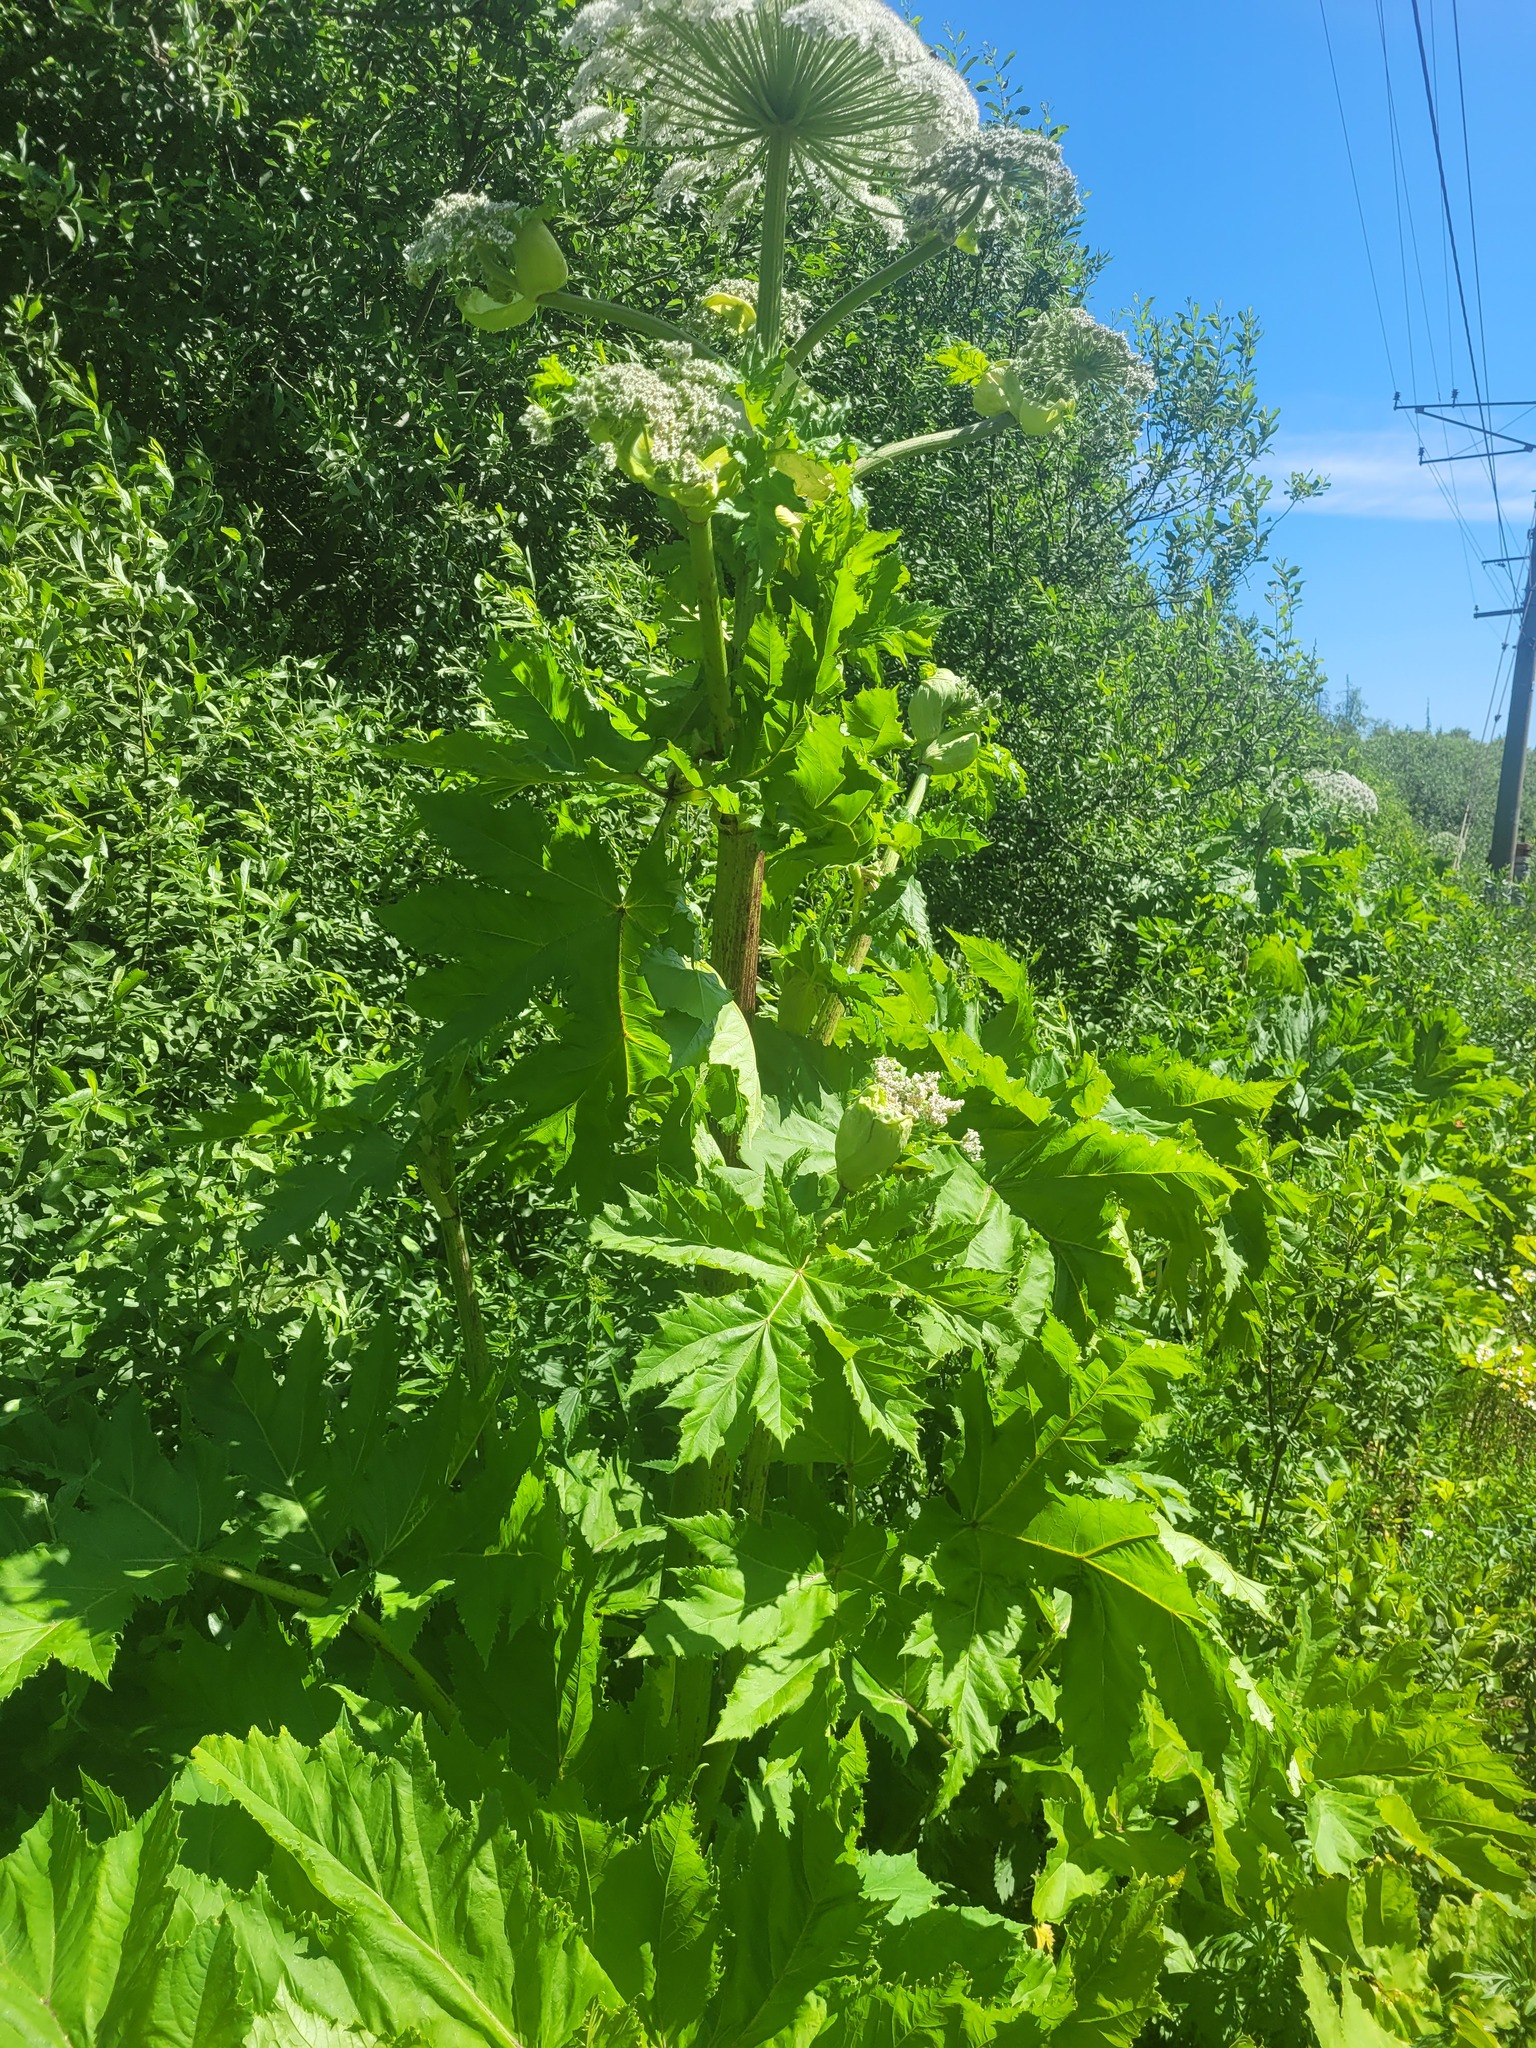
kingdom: Plantae
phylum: Tracheophyta
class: Magnoliopsida
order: Apiales
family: Apiaceae
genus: Heracleum
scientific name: Heracleum sosnowskyi
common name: Sosnowsky's hogweed
